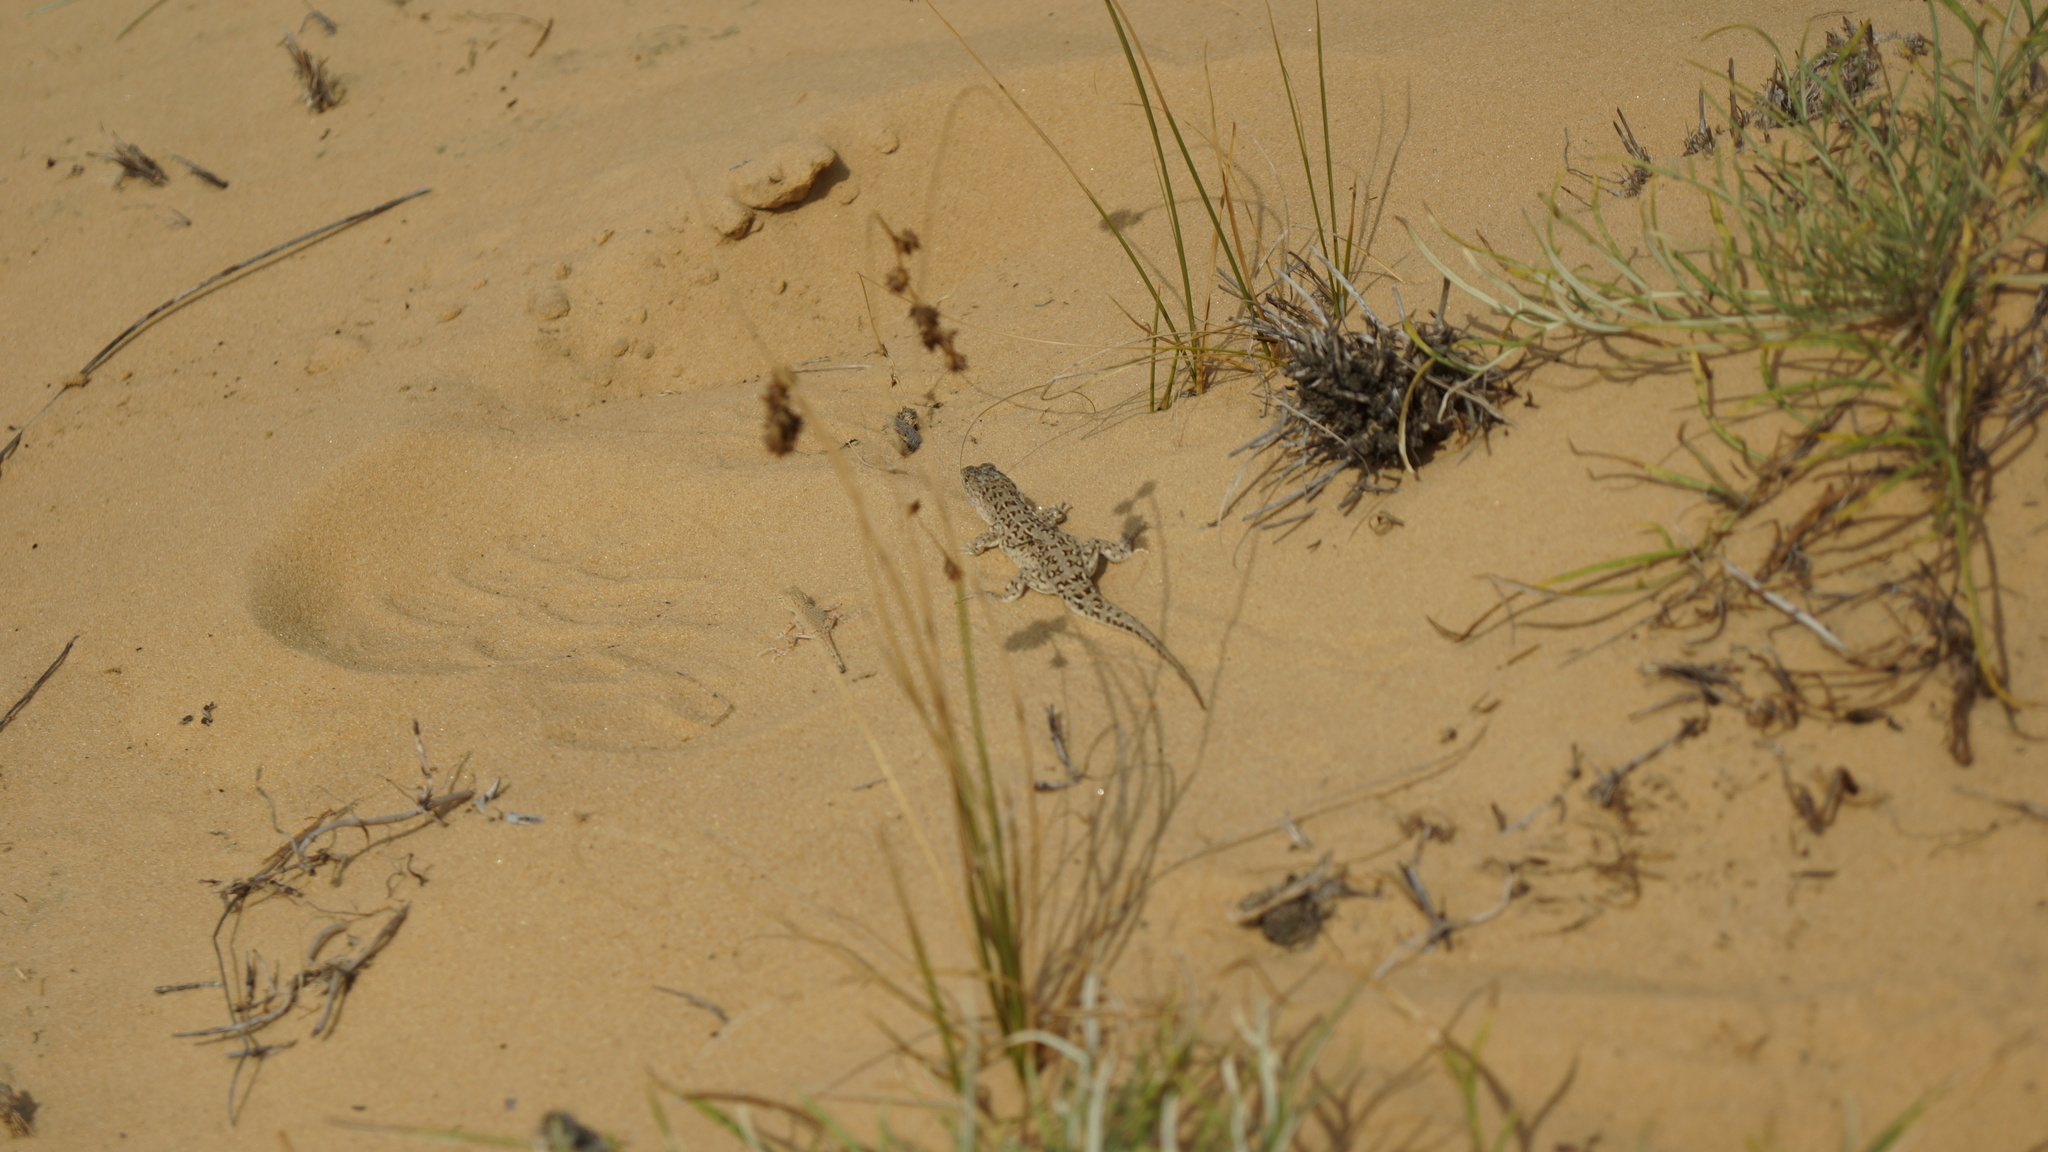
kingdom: Animalia
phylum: Chordata
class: Squamata
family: Agamidae
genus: Phrynocephalus
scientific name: Phrynocephalus guttatus
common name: Spotted toadhead agama
